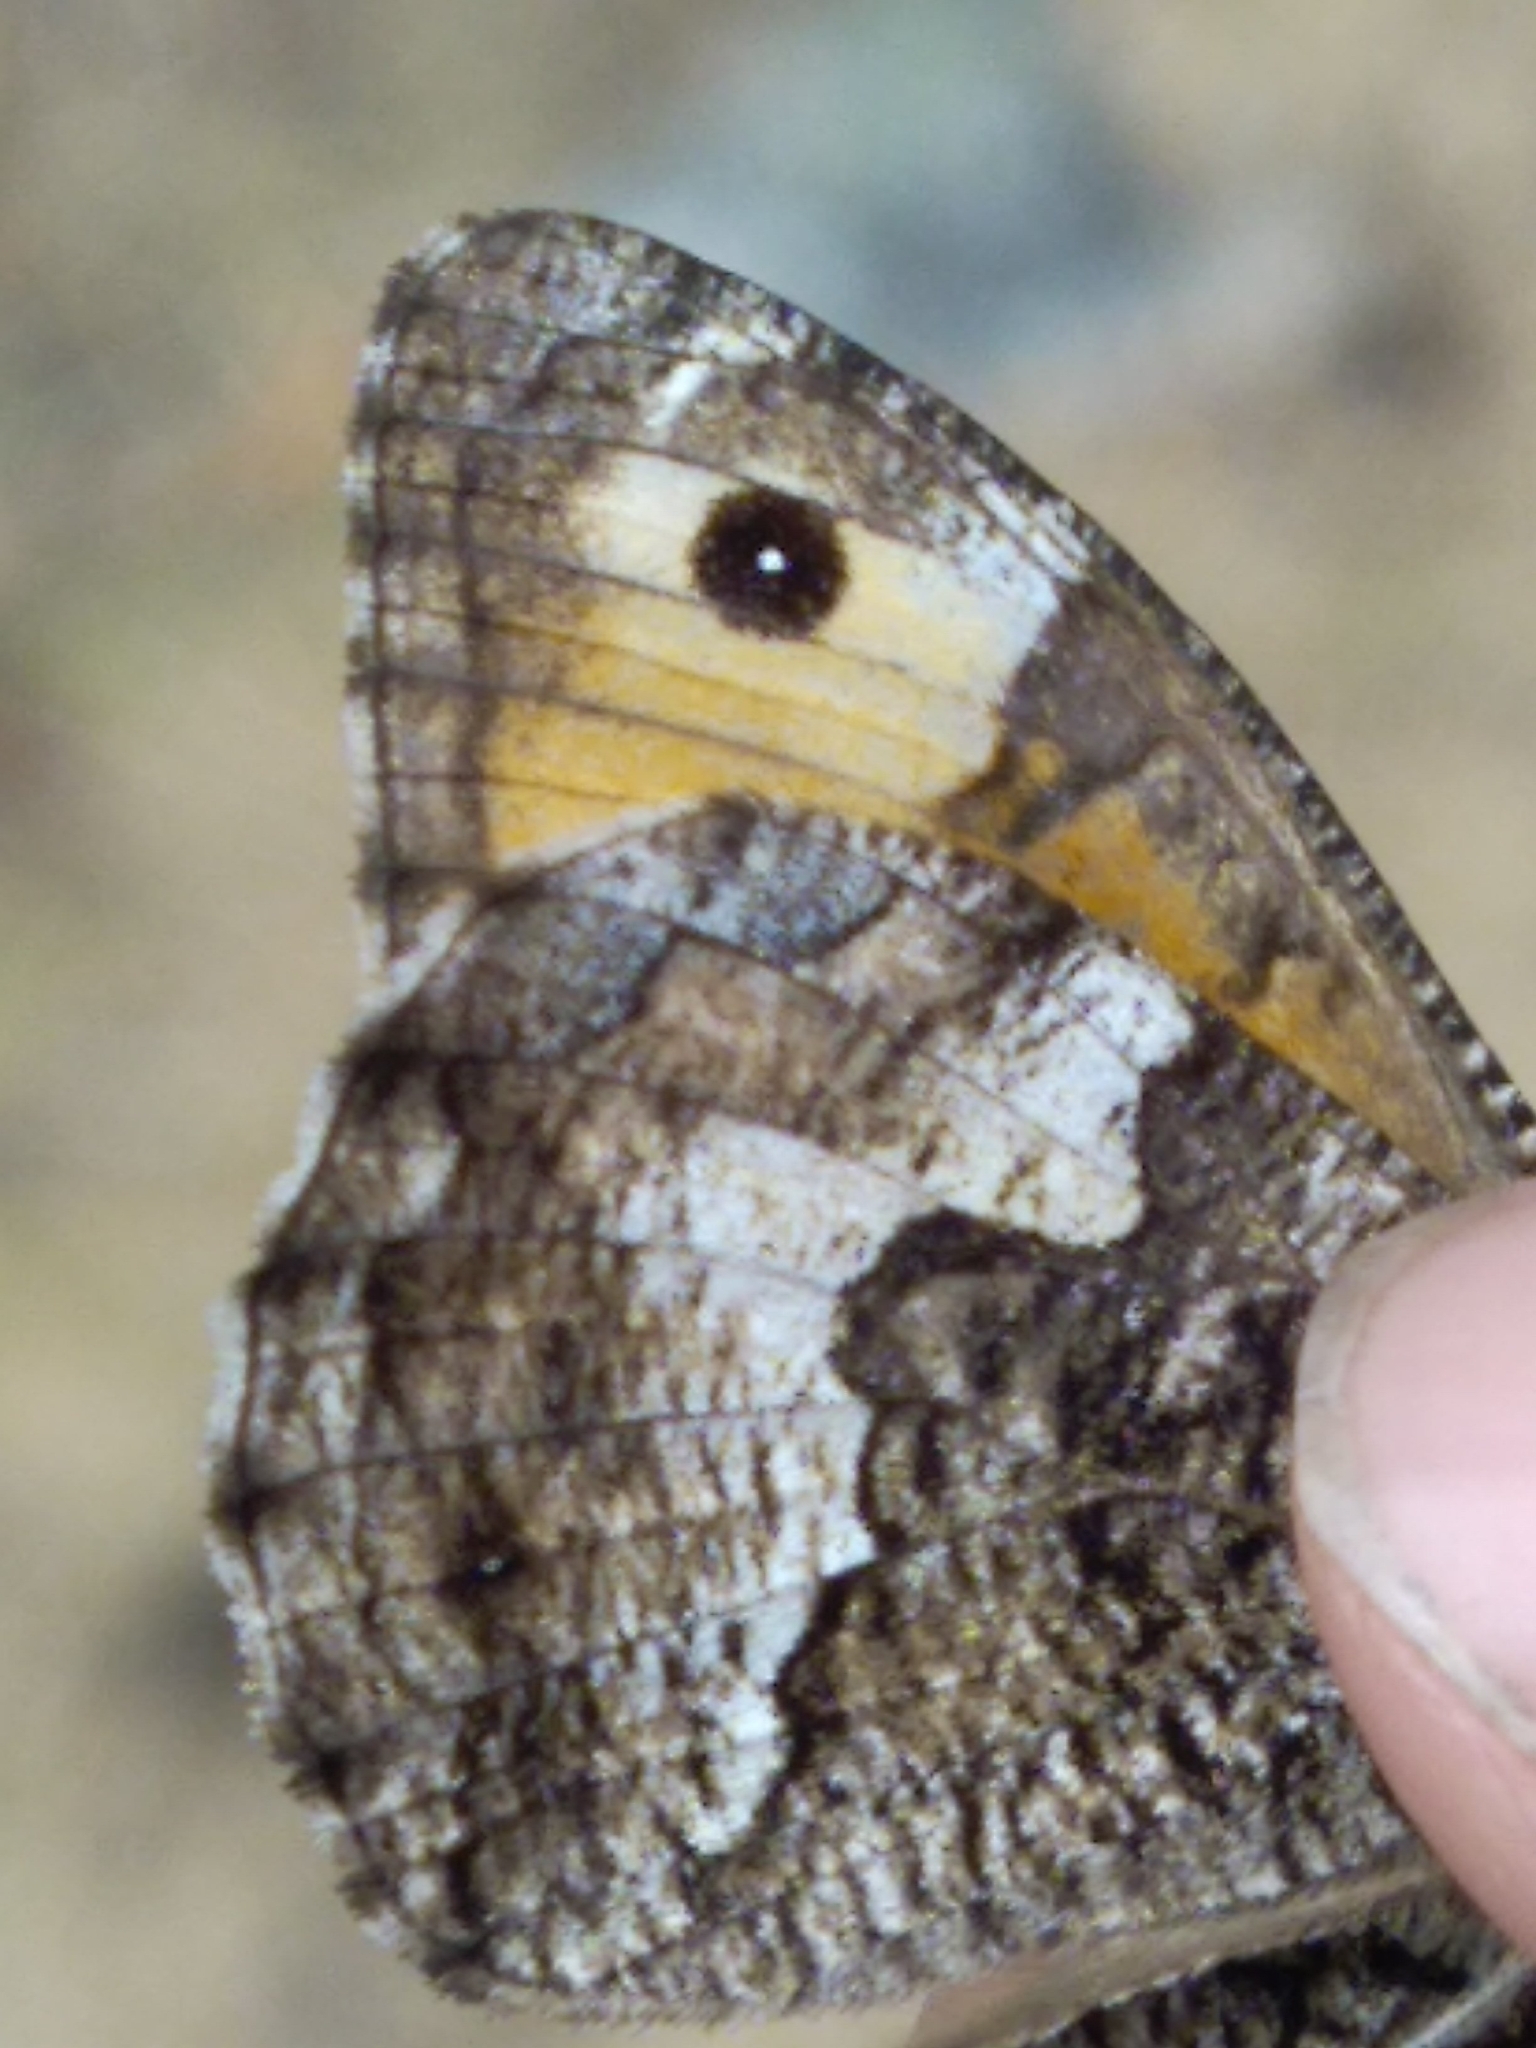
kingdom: Animalia
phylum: Arthropoda
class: Insecta
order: Lepidoptera
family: Nymphalidae
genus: Hipparchia
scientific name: Hipparchia semele
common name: Grayling
